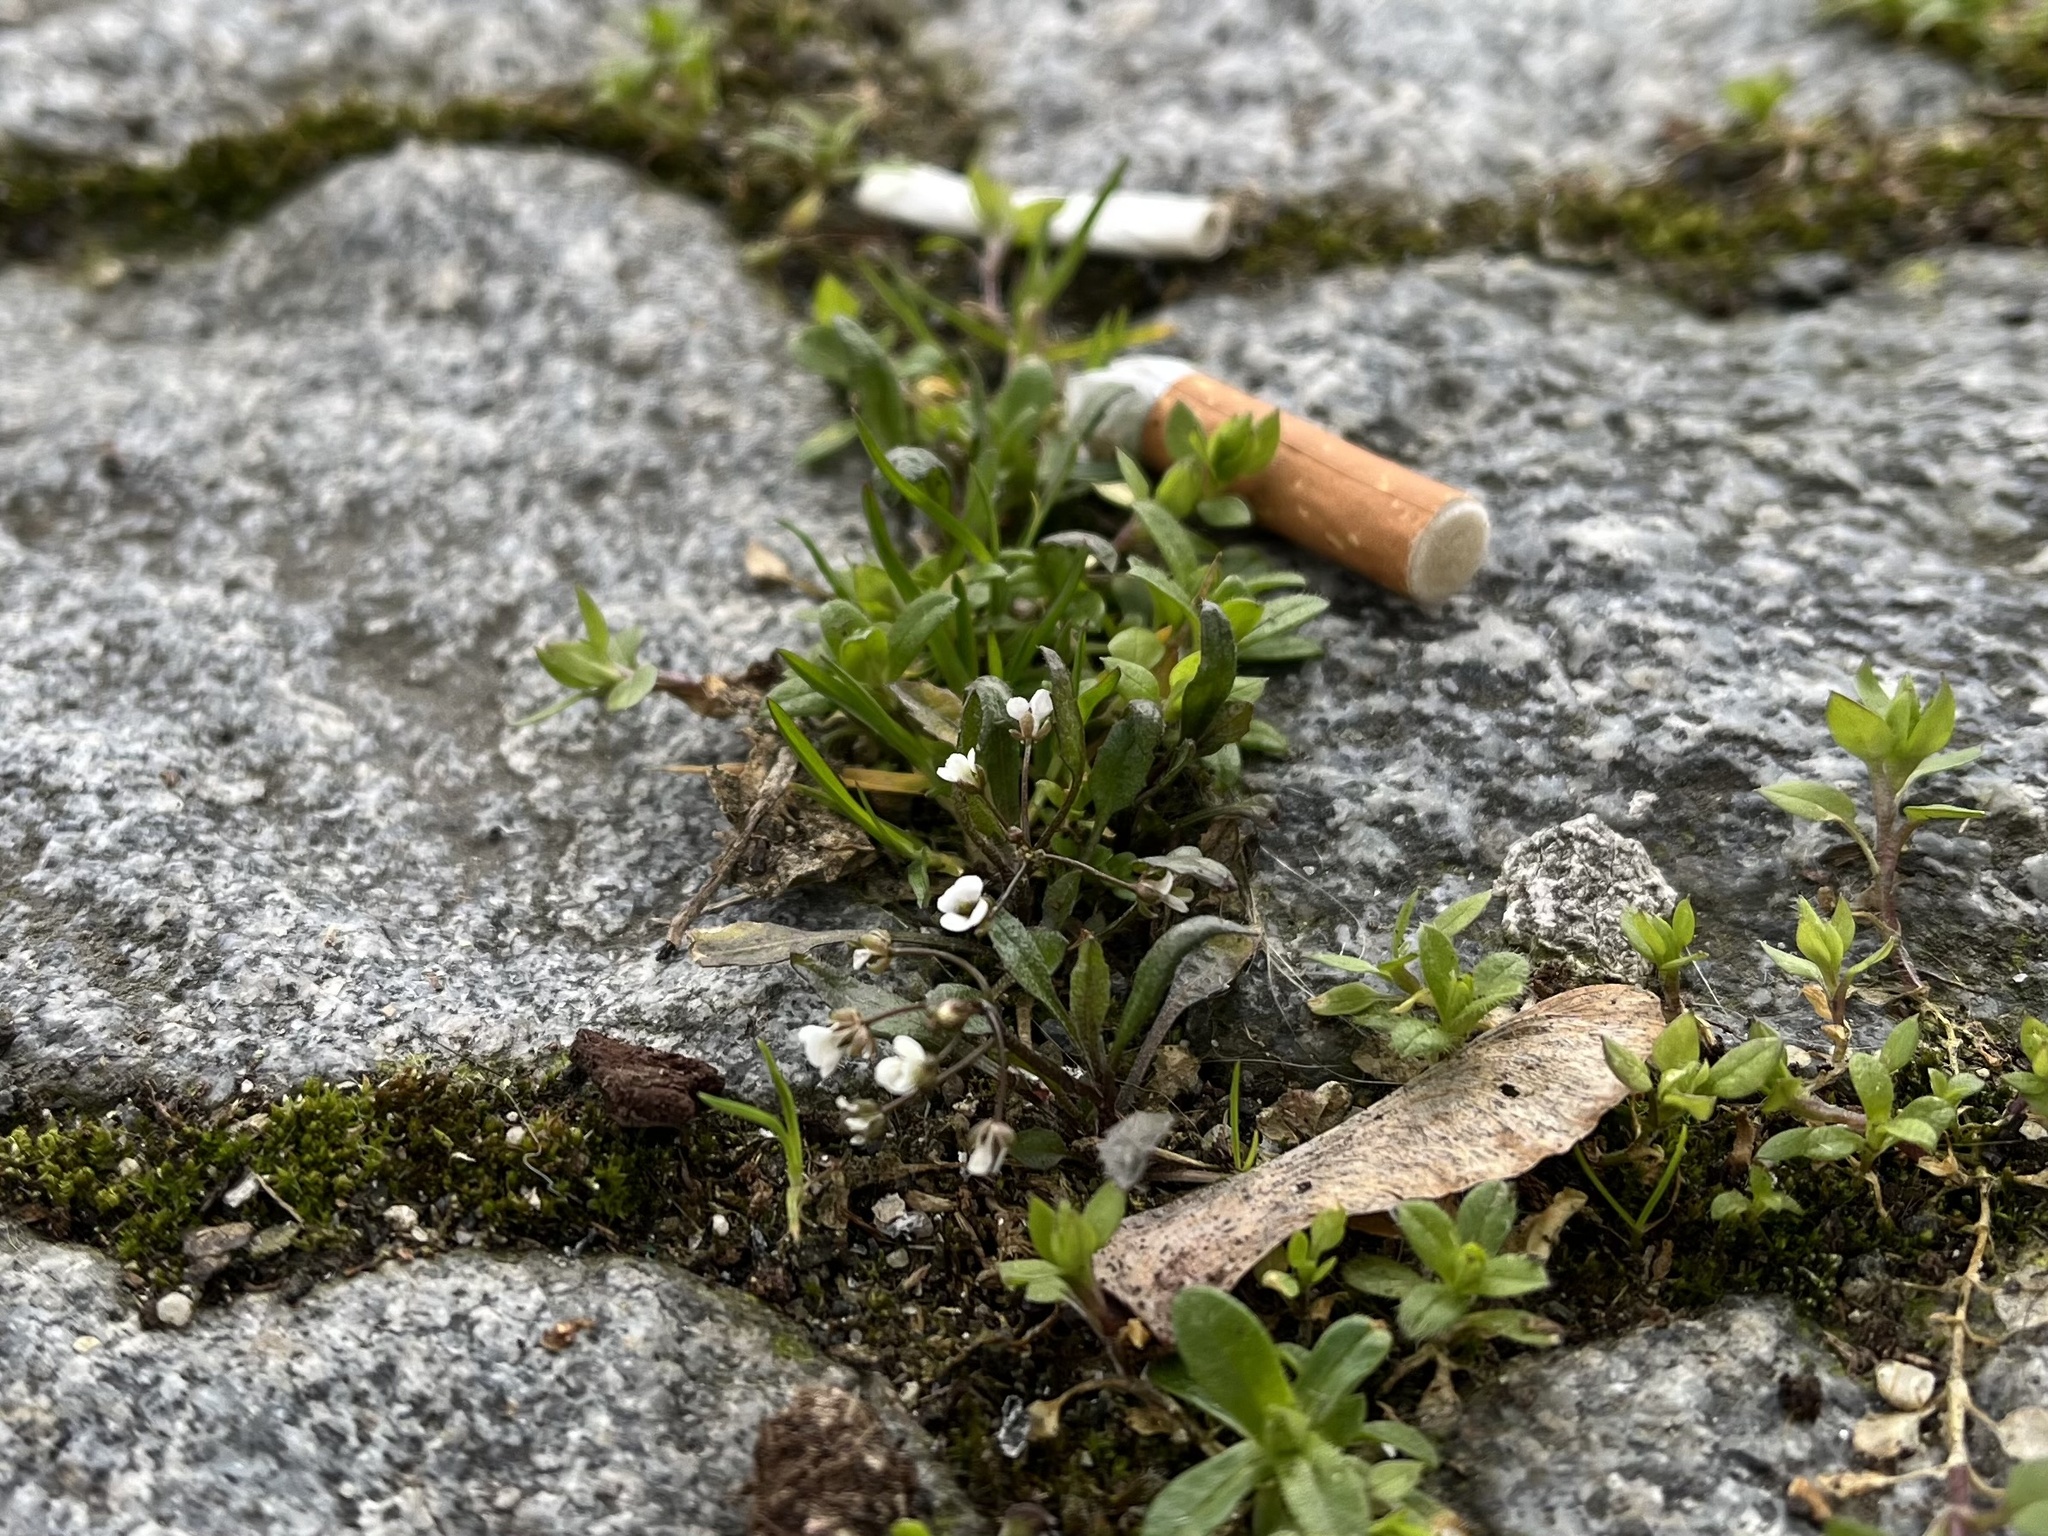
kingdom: Plantae
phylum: Tracheophyta
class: Magnoliopsida
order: Brassicales
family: Brassicaceae
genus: Draba
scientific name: Draba verna
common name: Spring draba
